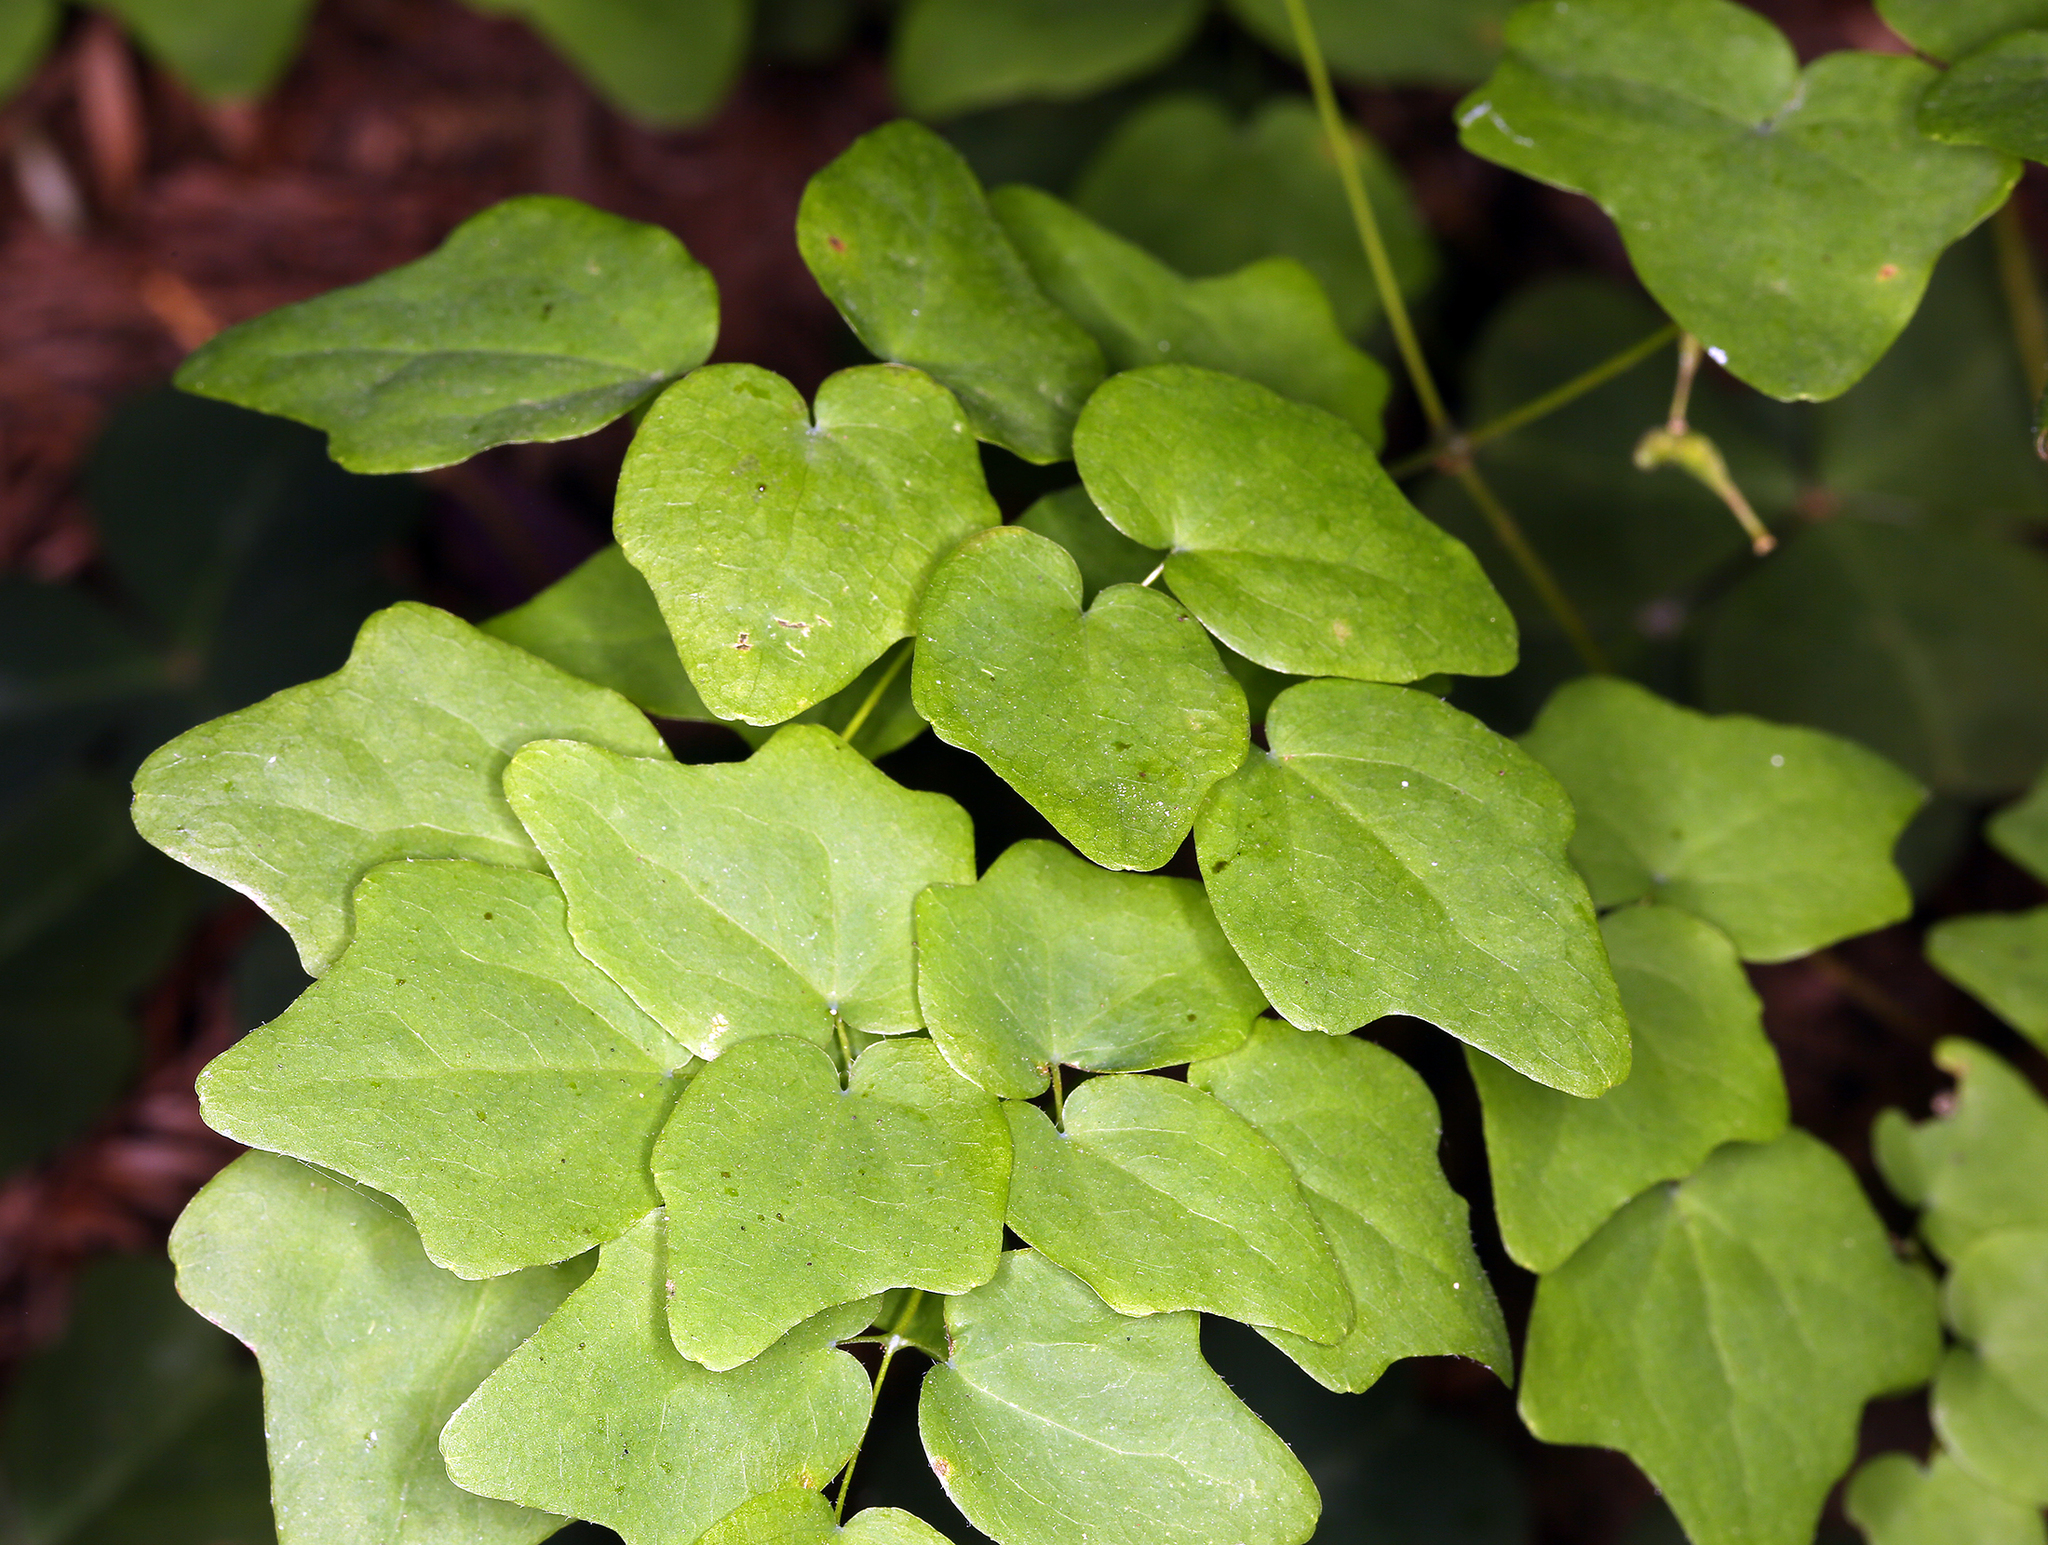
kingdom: Plantae
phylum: Tracheophyta
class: Magnoliopsida
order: Ranunculales
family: Berberidaceae
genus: Vancouveria
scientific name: Vancouveria hexandra
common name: Northern inside-out-flower
